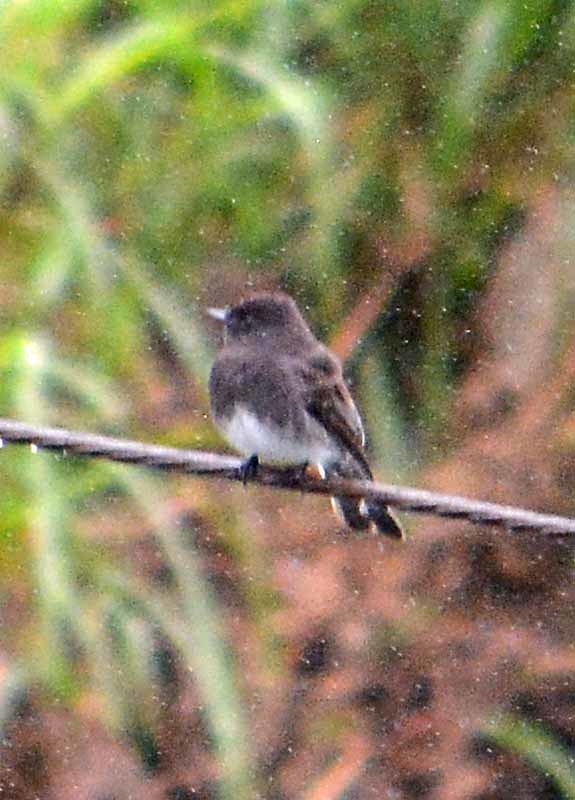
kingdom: Animalia
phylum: Chordata
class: Aves
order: Passeriformes
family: Tyrannidae
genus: Sayornis
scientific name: Sayornis nigricans
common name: Black phoebe
